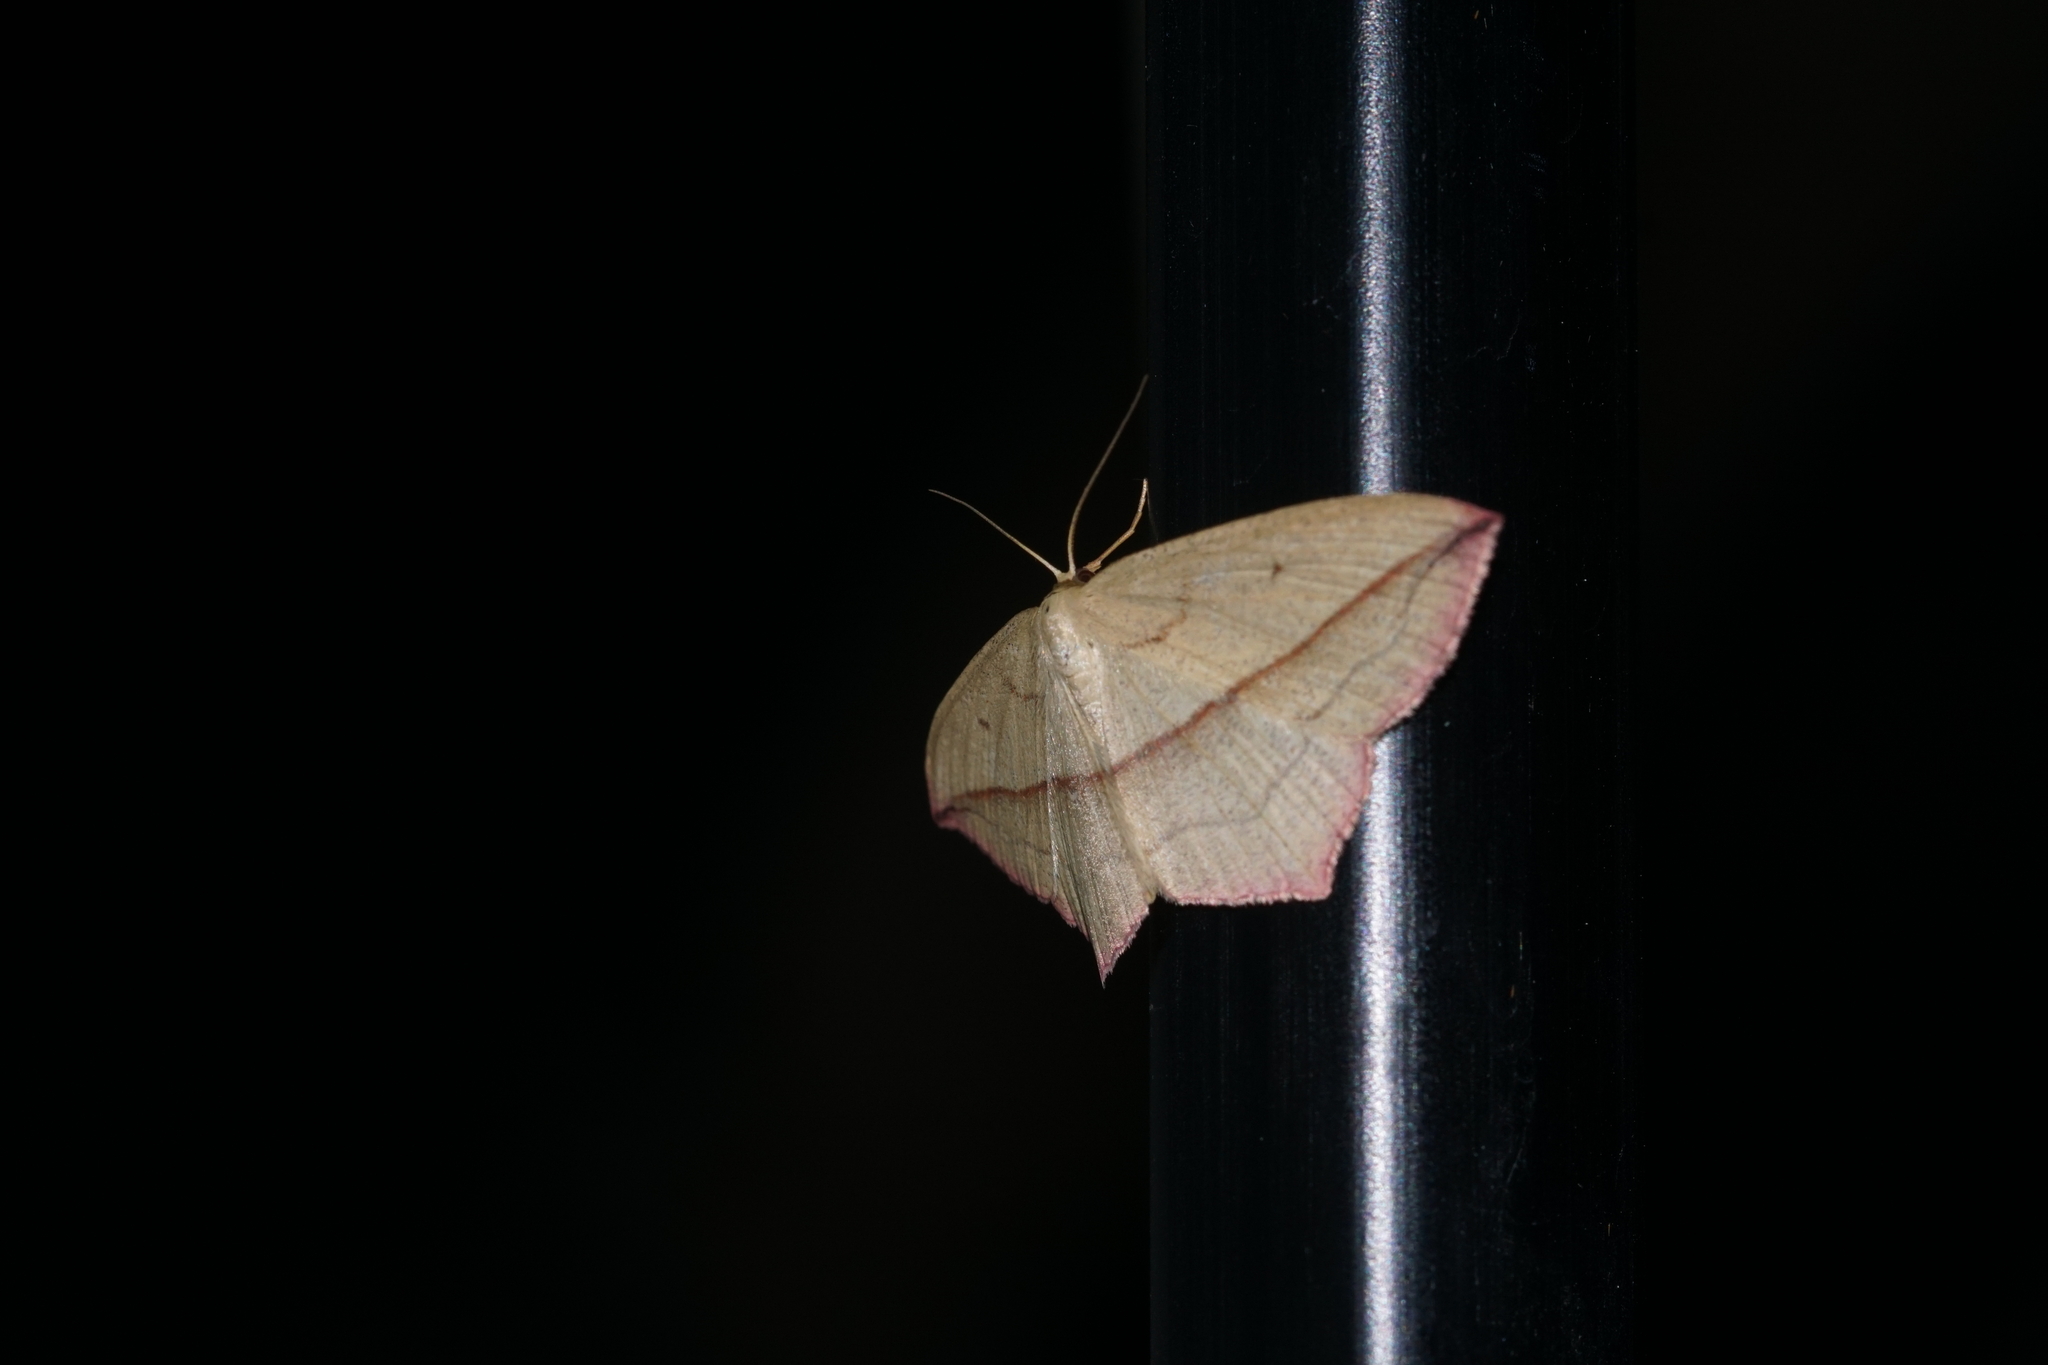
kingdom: Animalia
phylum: Arthropoda
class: Insecta
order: Lepidoptera
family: Geometridae
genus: Timandra
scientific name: Timandra comae
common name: Blood-vein
